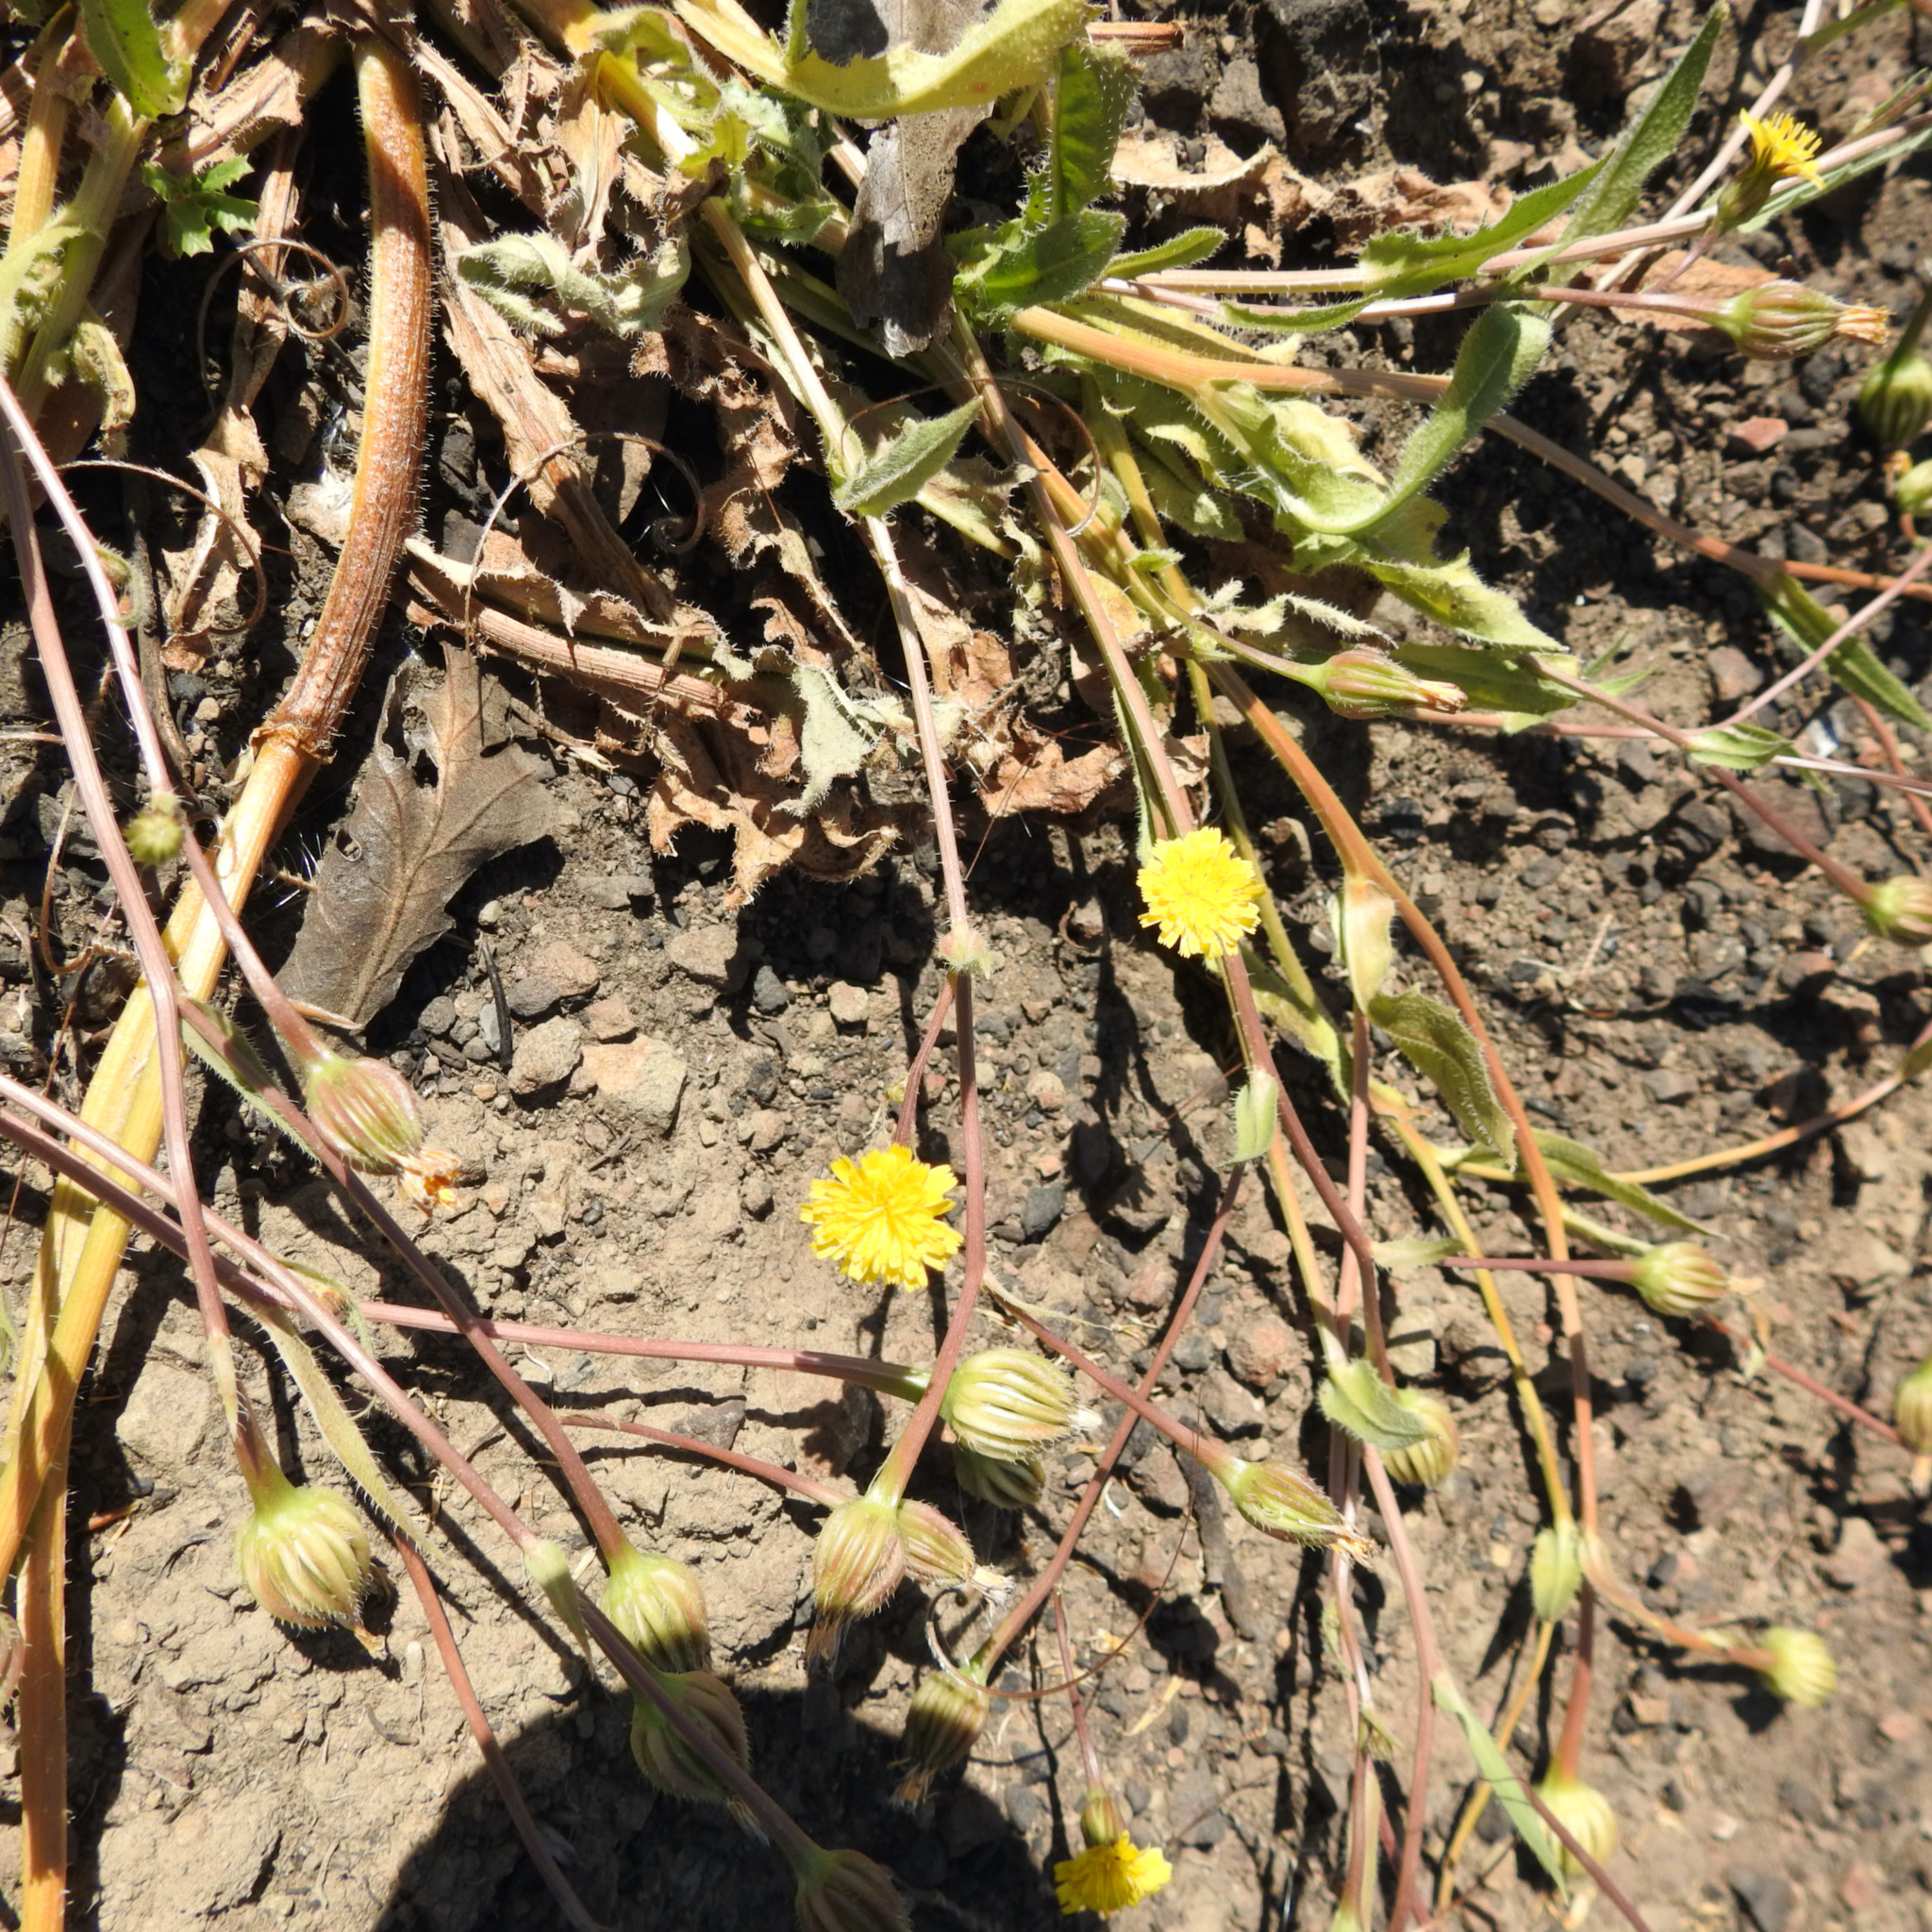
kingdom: Plantae
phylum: Tracheophyta
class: Magnoliopsida
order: Asterales
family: Asteraceae
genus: Hedypnois
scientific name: Hedypnois rhagadioloides
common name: Cretan weed
